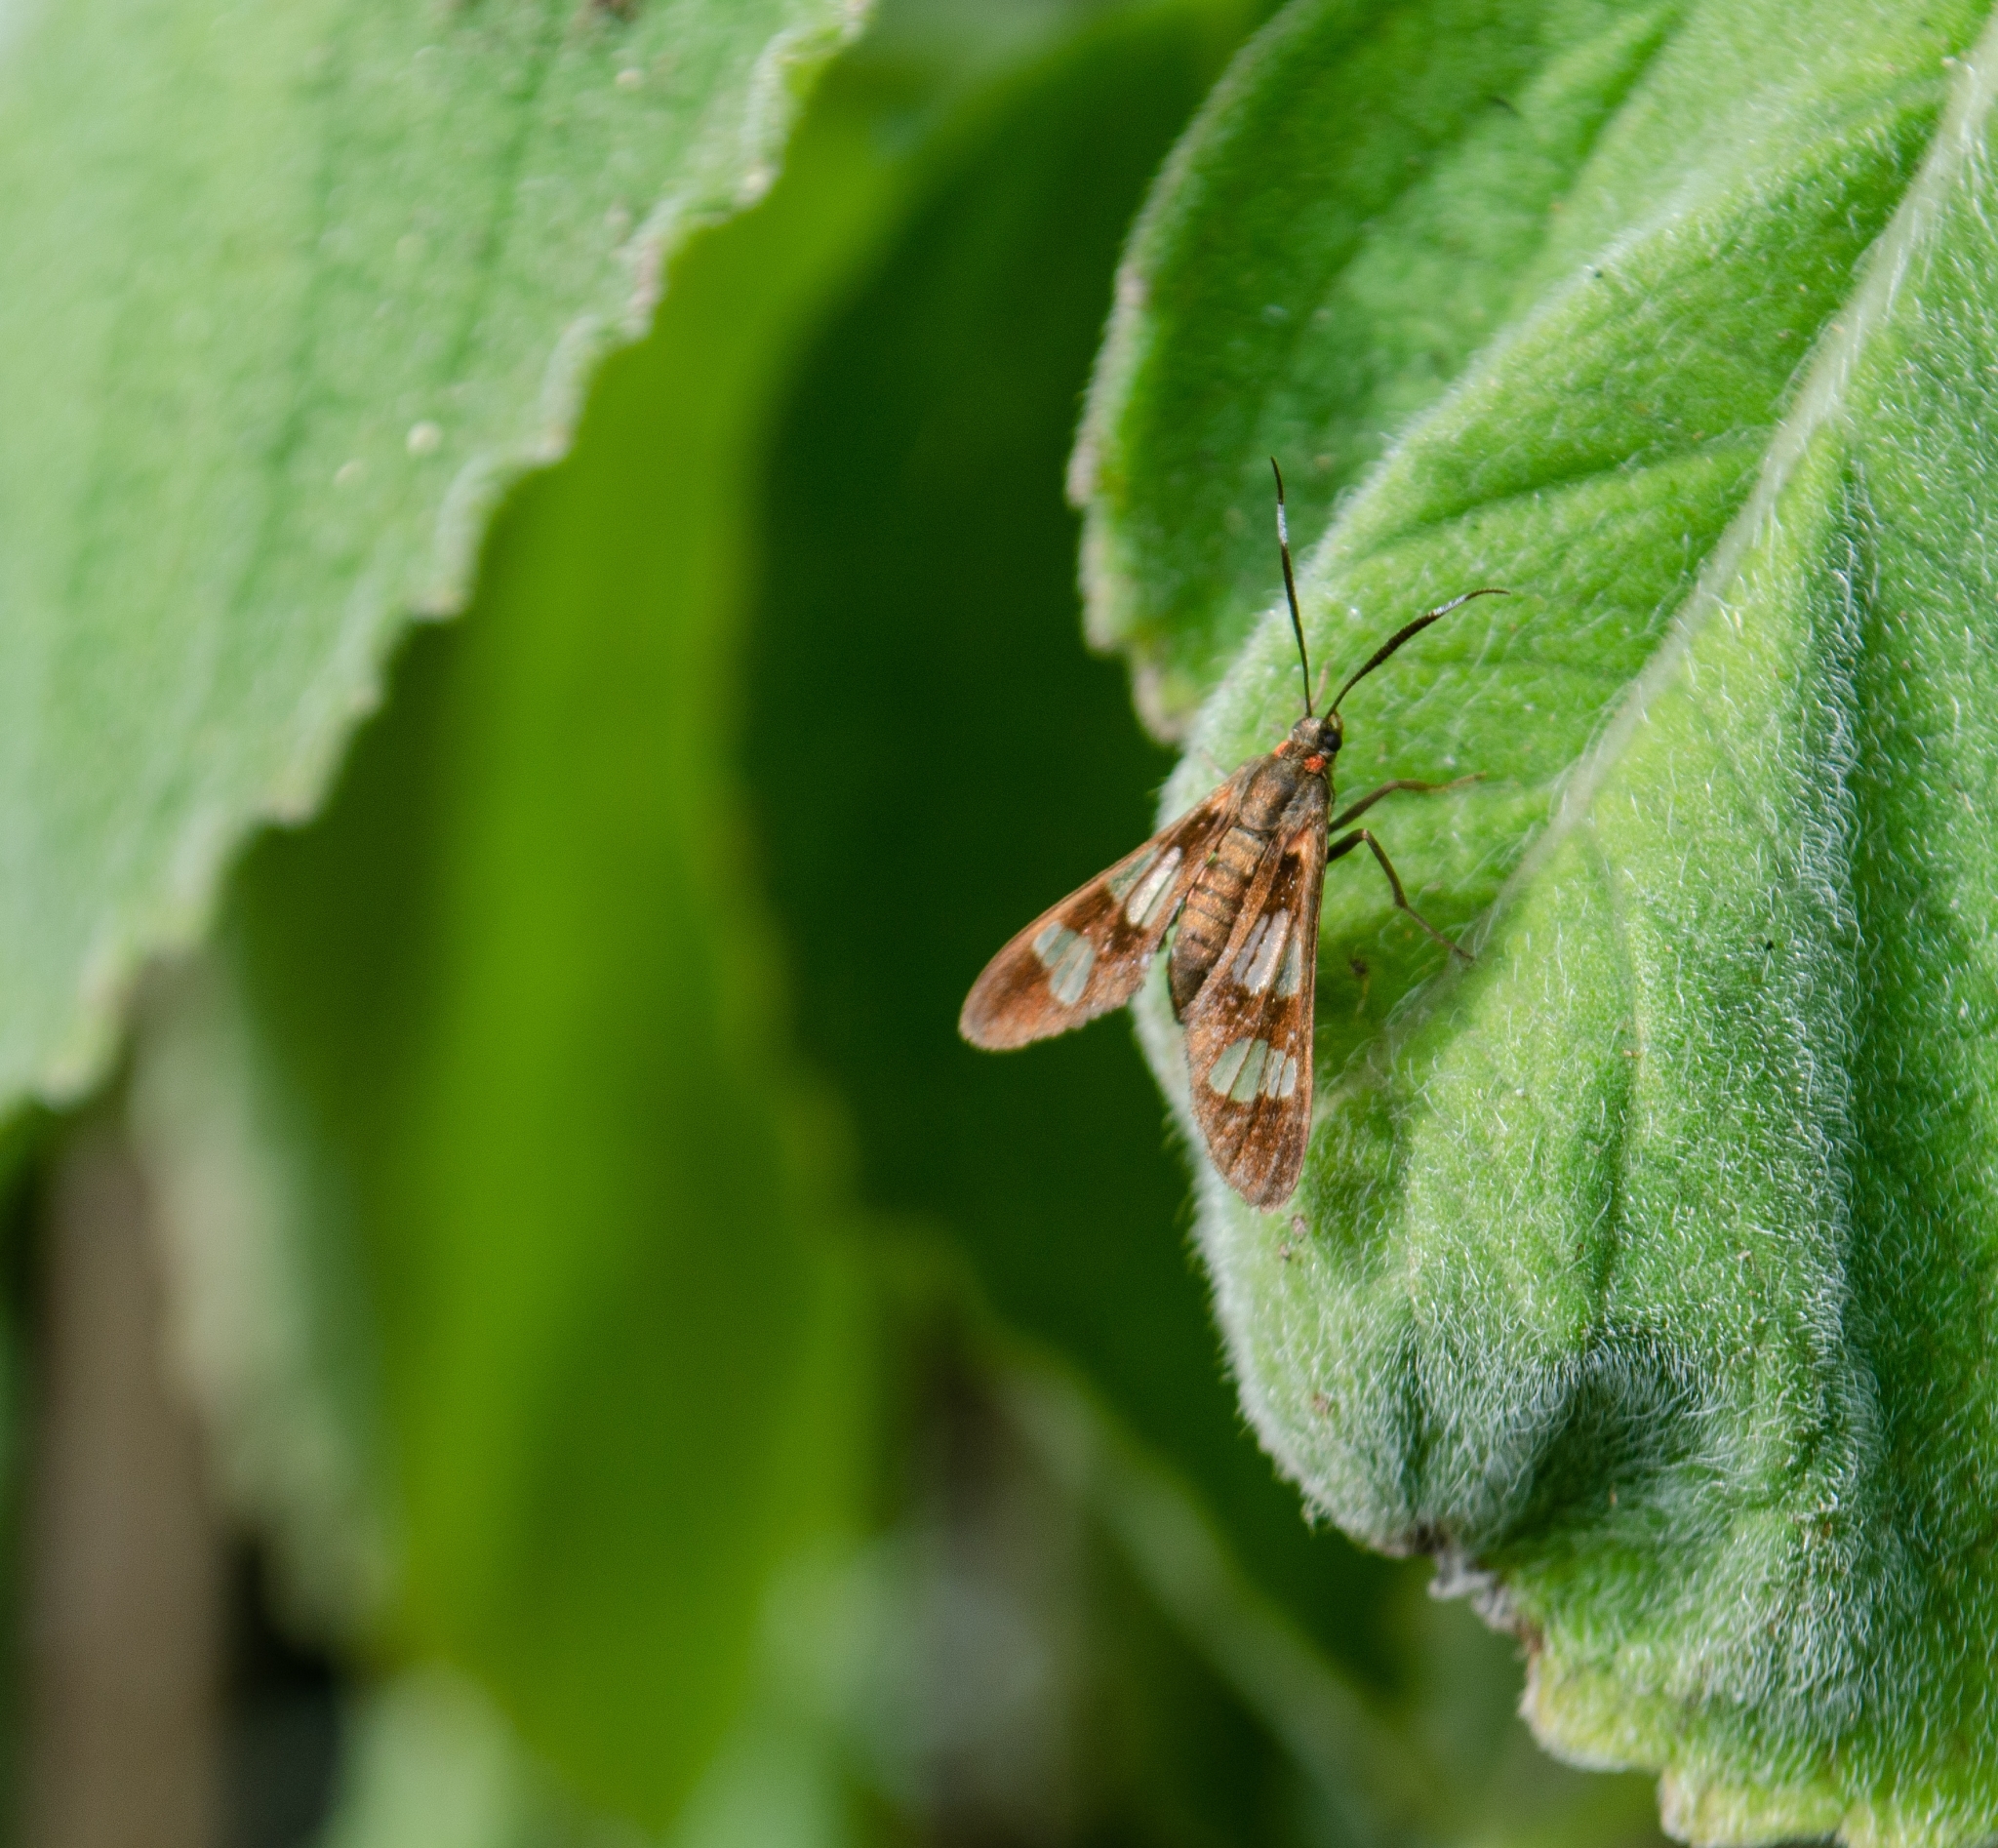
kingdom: Animalia
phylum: Arthropoda
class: Insecta
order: Lepidoptera
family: Erebidae
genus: Phoenicoprocta
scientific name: Phoenicoprocta teda
